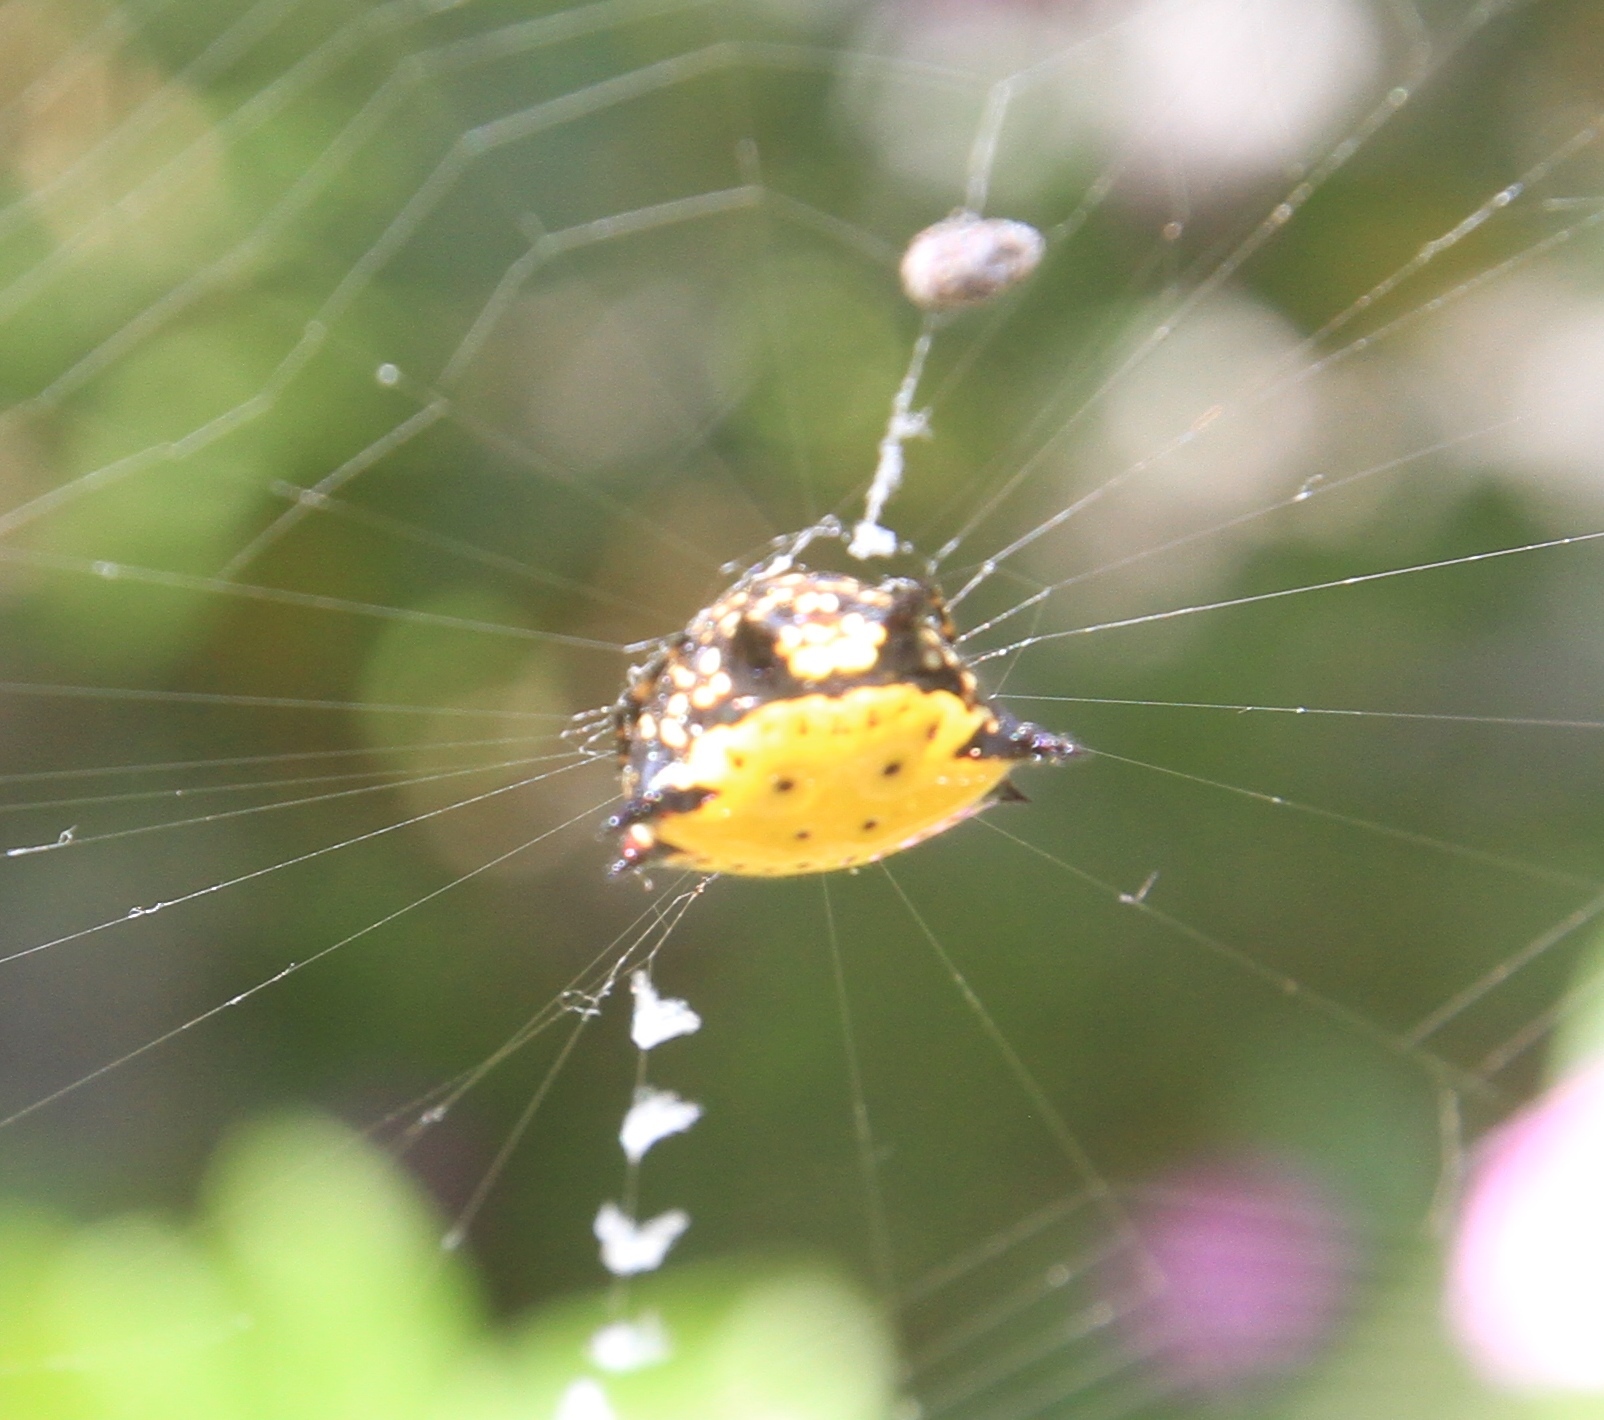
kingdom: Animalia
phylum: Arthropoda
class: Arachnida
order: Araneae
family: Araneidae
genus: Gasteracantha
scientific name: Gasteracantha cancriformis
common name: Orb weavers
